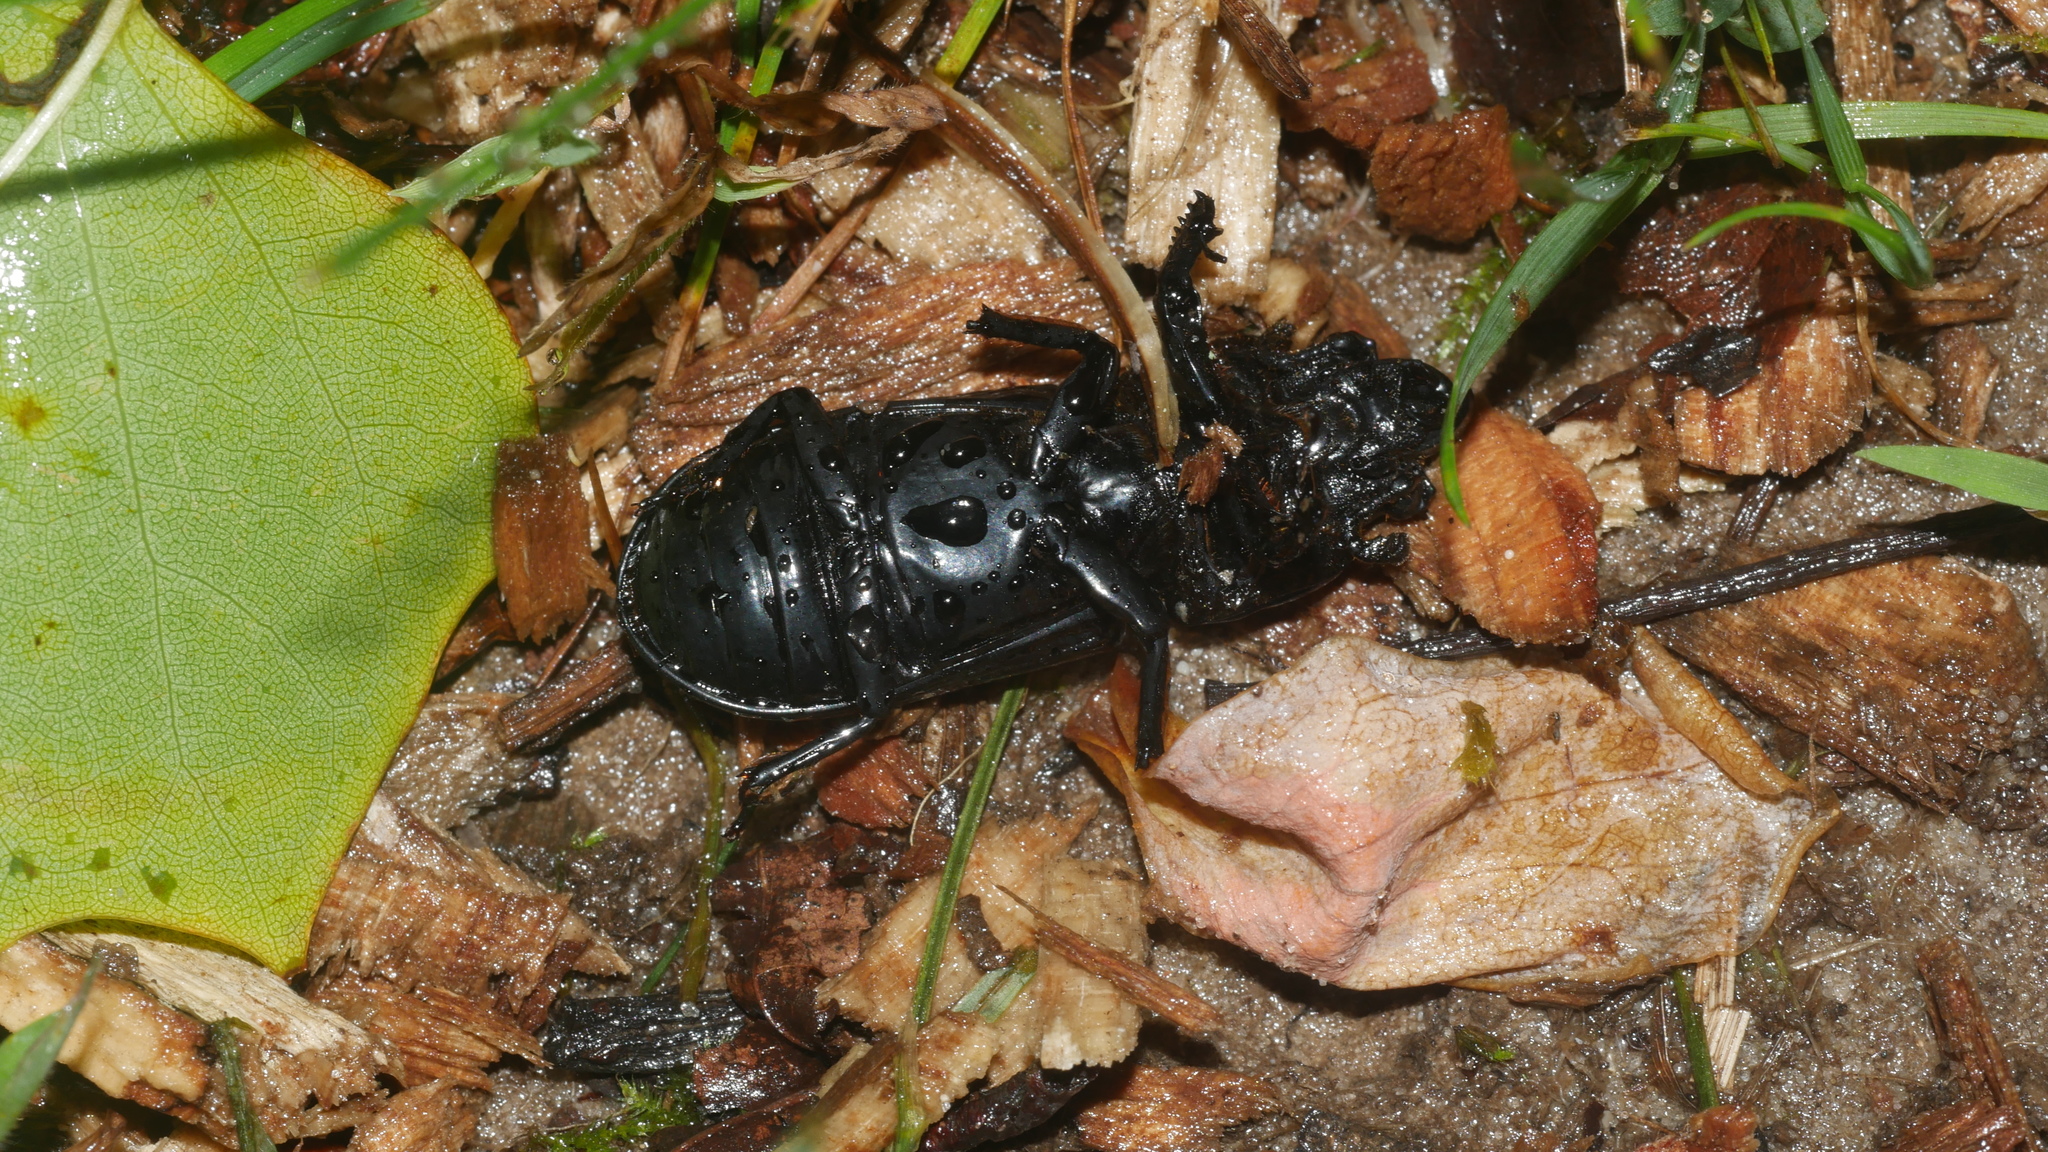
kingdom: Animalia
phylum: Arthropoda
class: Insecta
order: Coleoptera
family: Passalidae
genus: Odontotaenius
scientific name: Odontotaenius disjunctus
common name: Patent leather beetle
